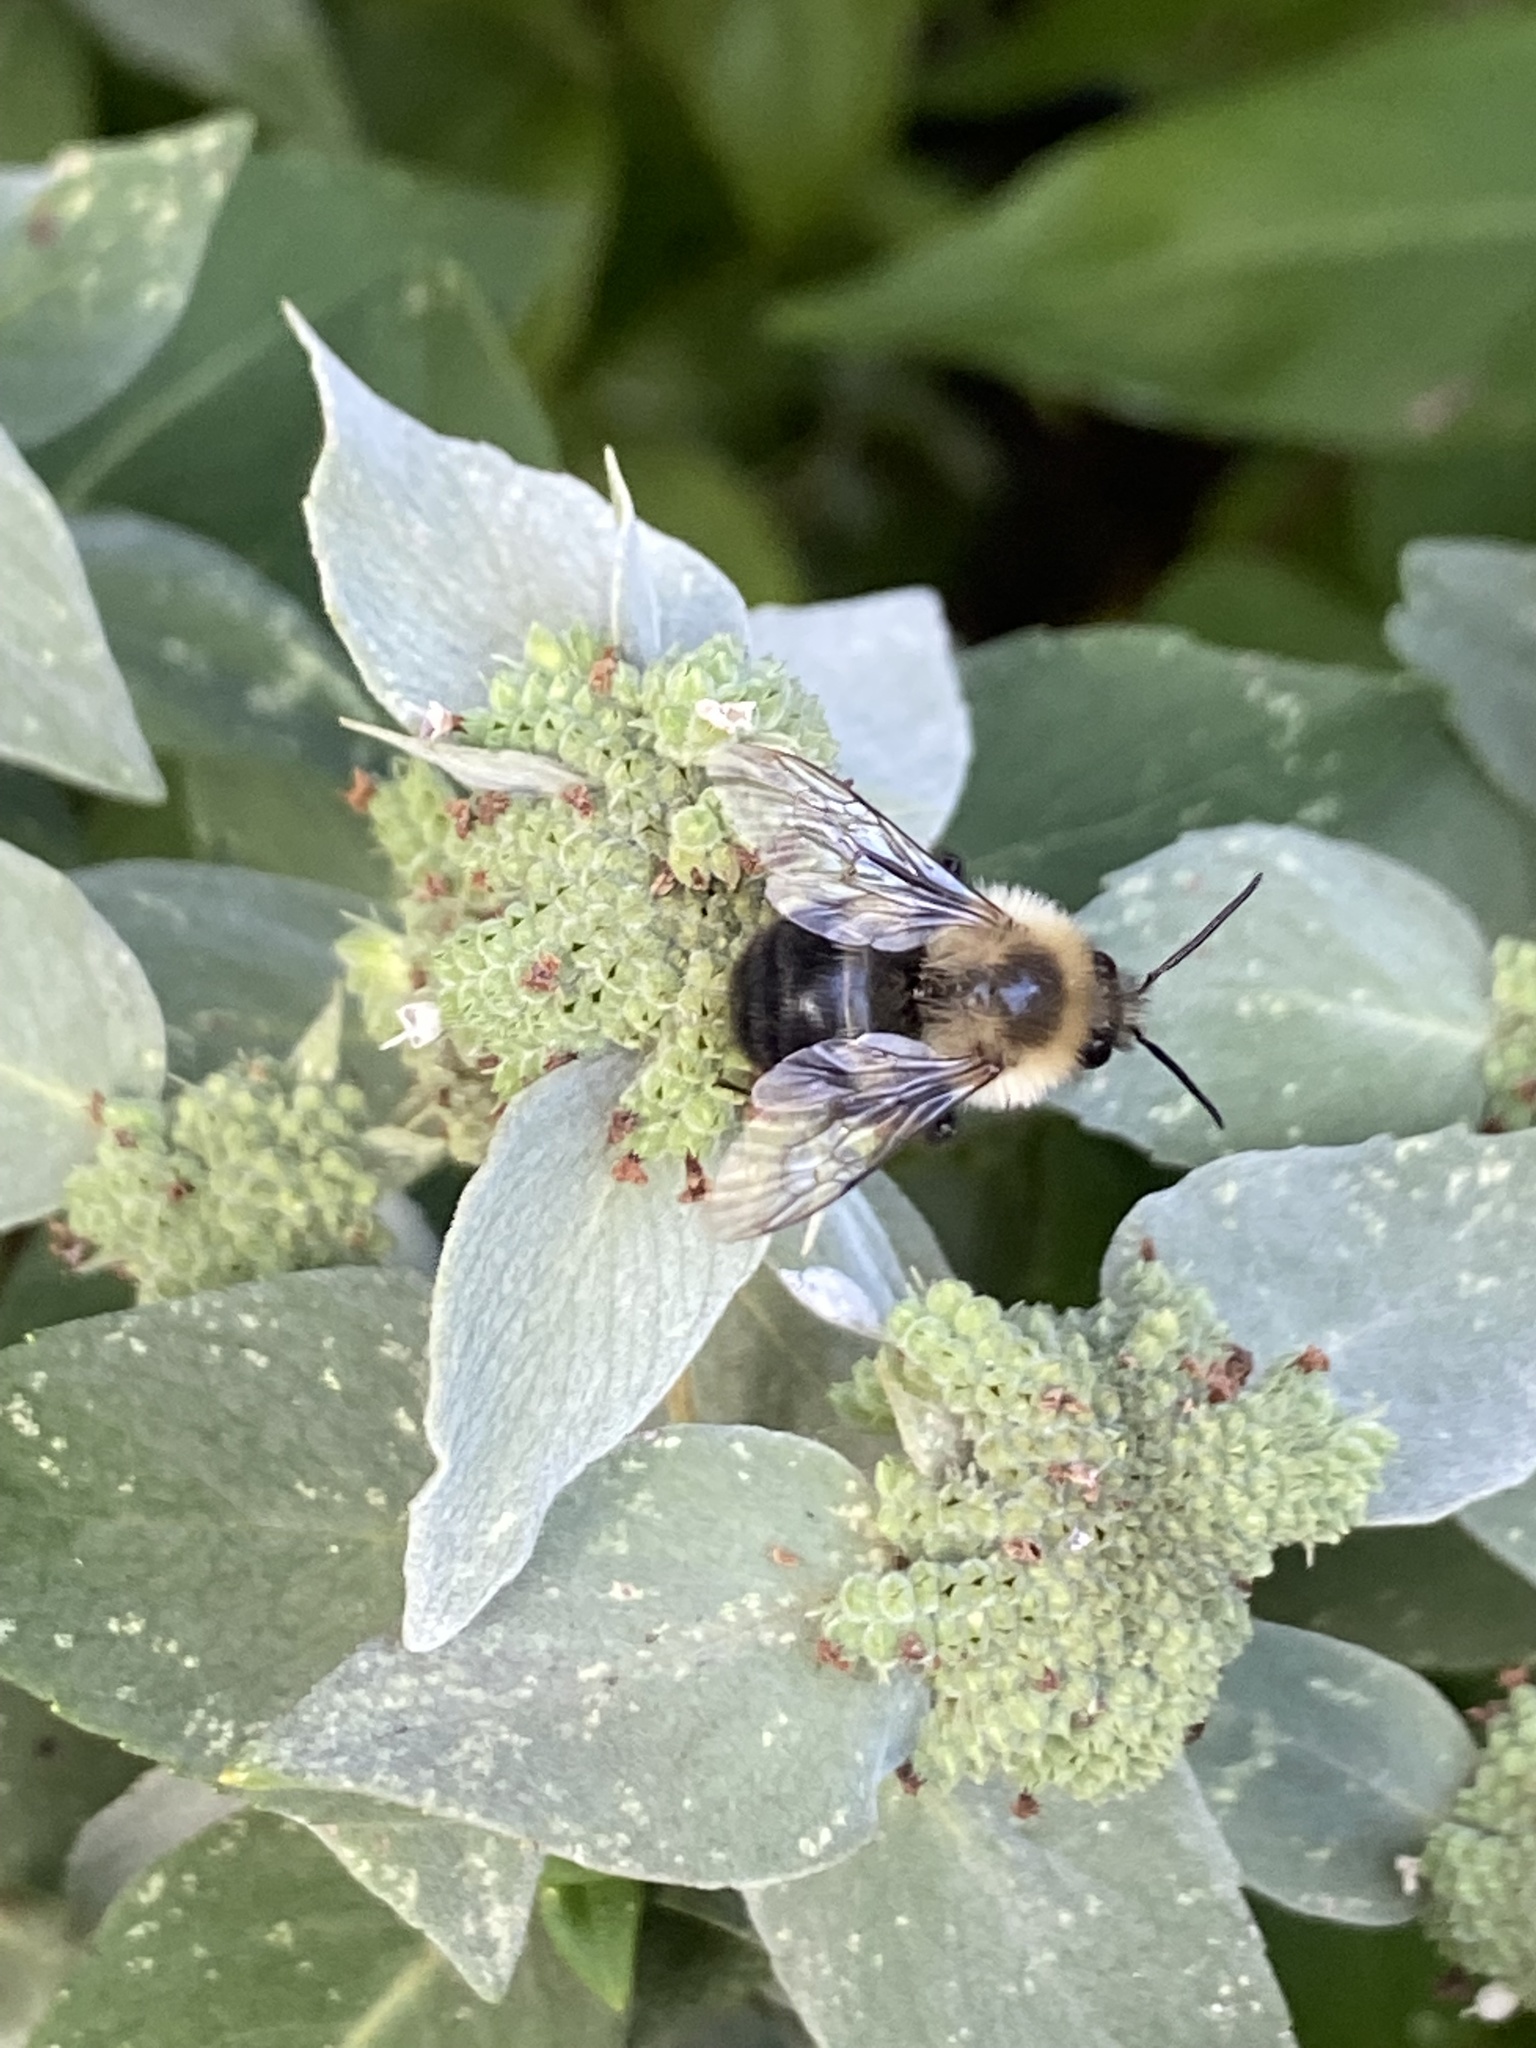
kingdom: Animalia
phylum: Arthropoda
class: Insecta
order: Hymenoptera
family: Apidae
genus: Bombus
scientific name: Bombus impatiens
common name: Common eastern bumble bee
